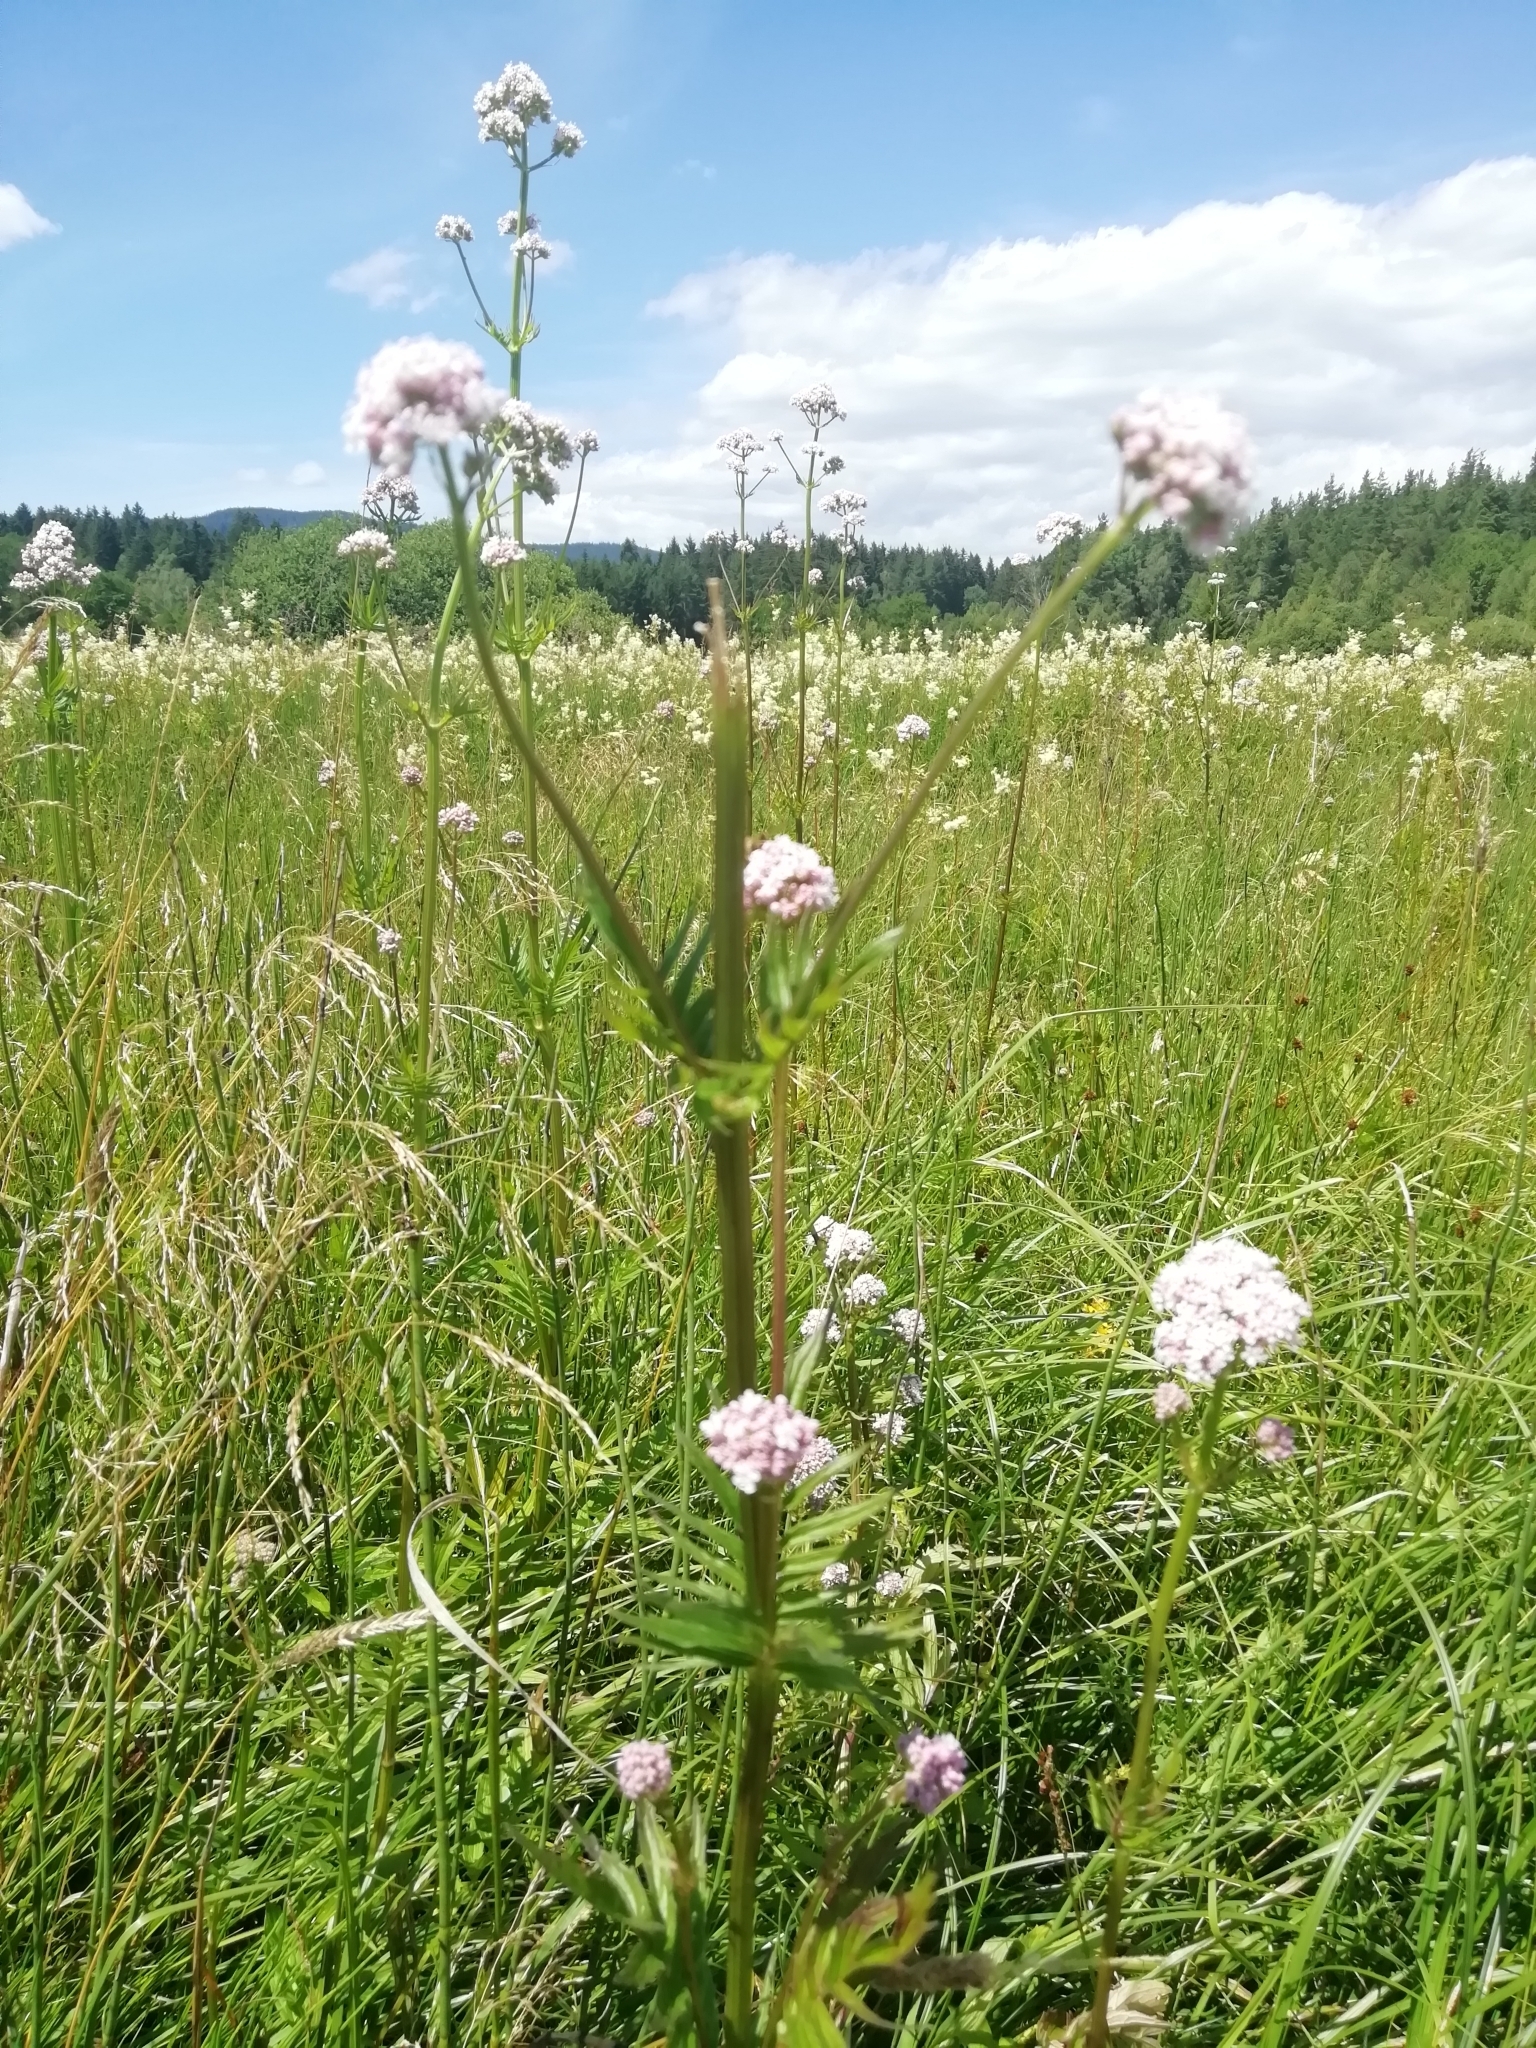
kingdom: Plantae
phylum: Tracheophyta
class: Magnoliopsida
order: Dipsacales
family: Caprifoliaceae
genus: Valeriana
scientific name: Valeriana officinalis
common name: Common valerian
